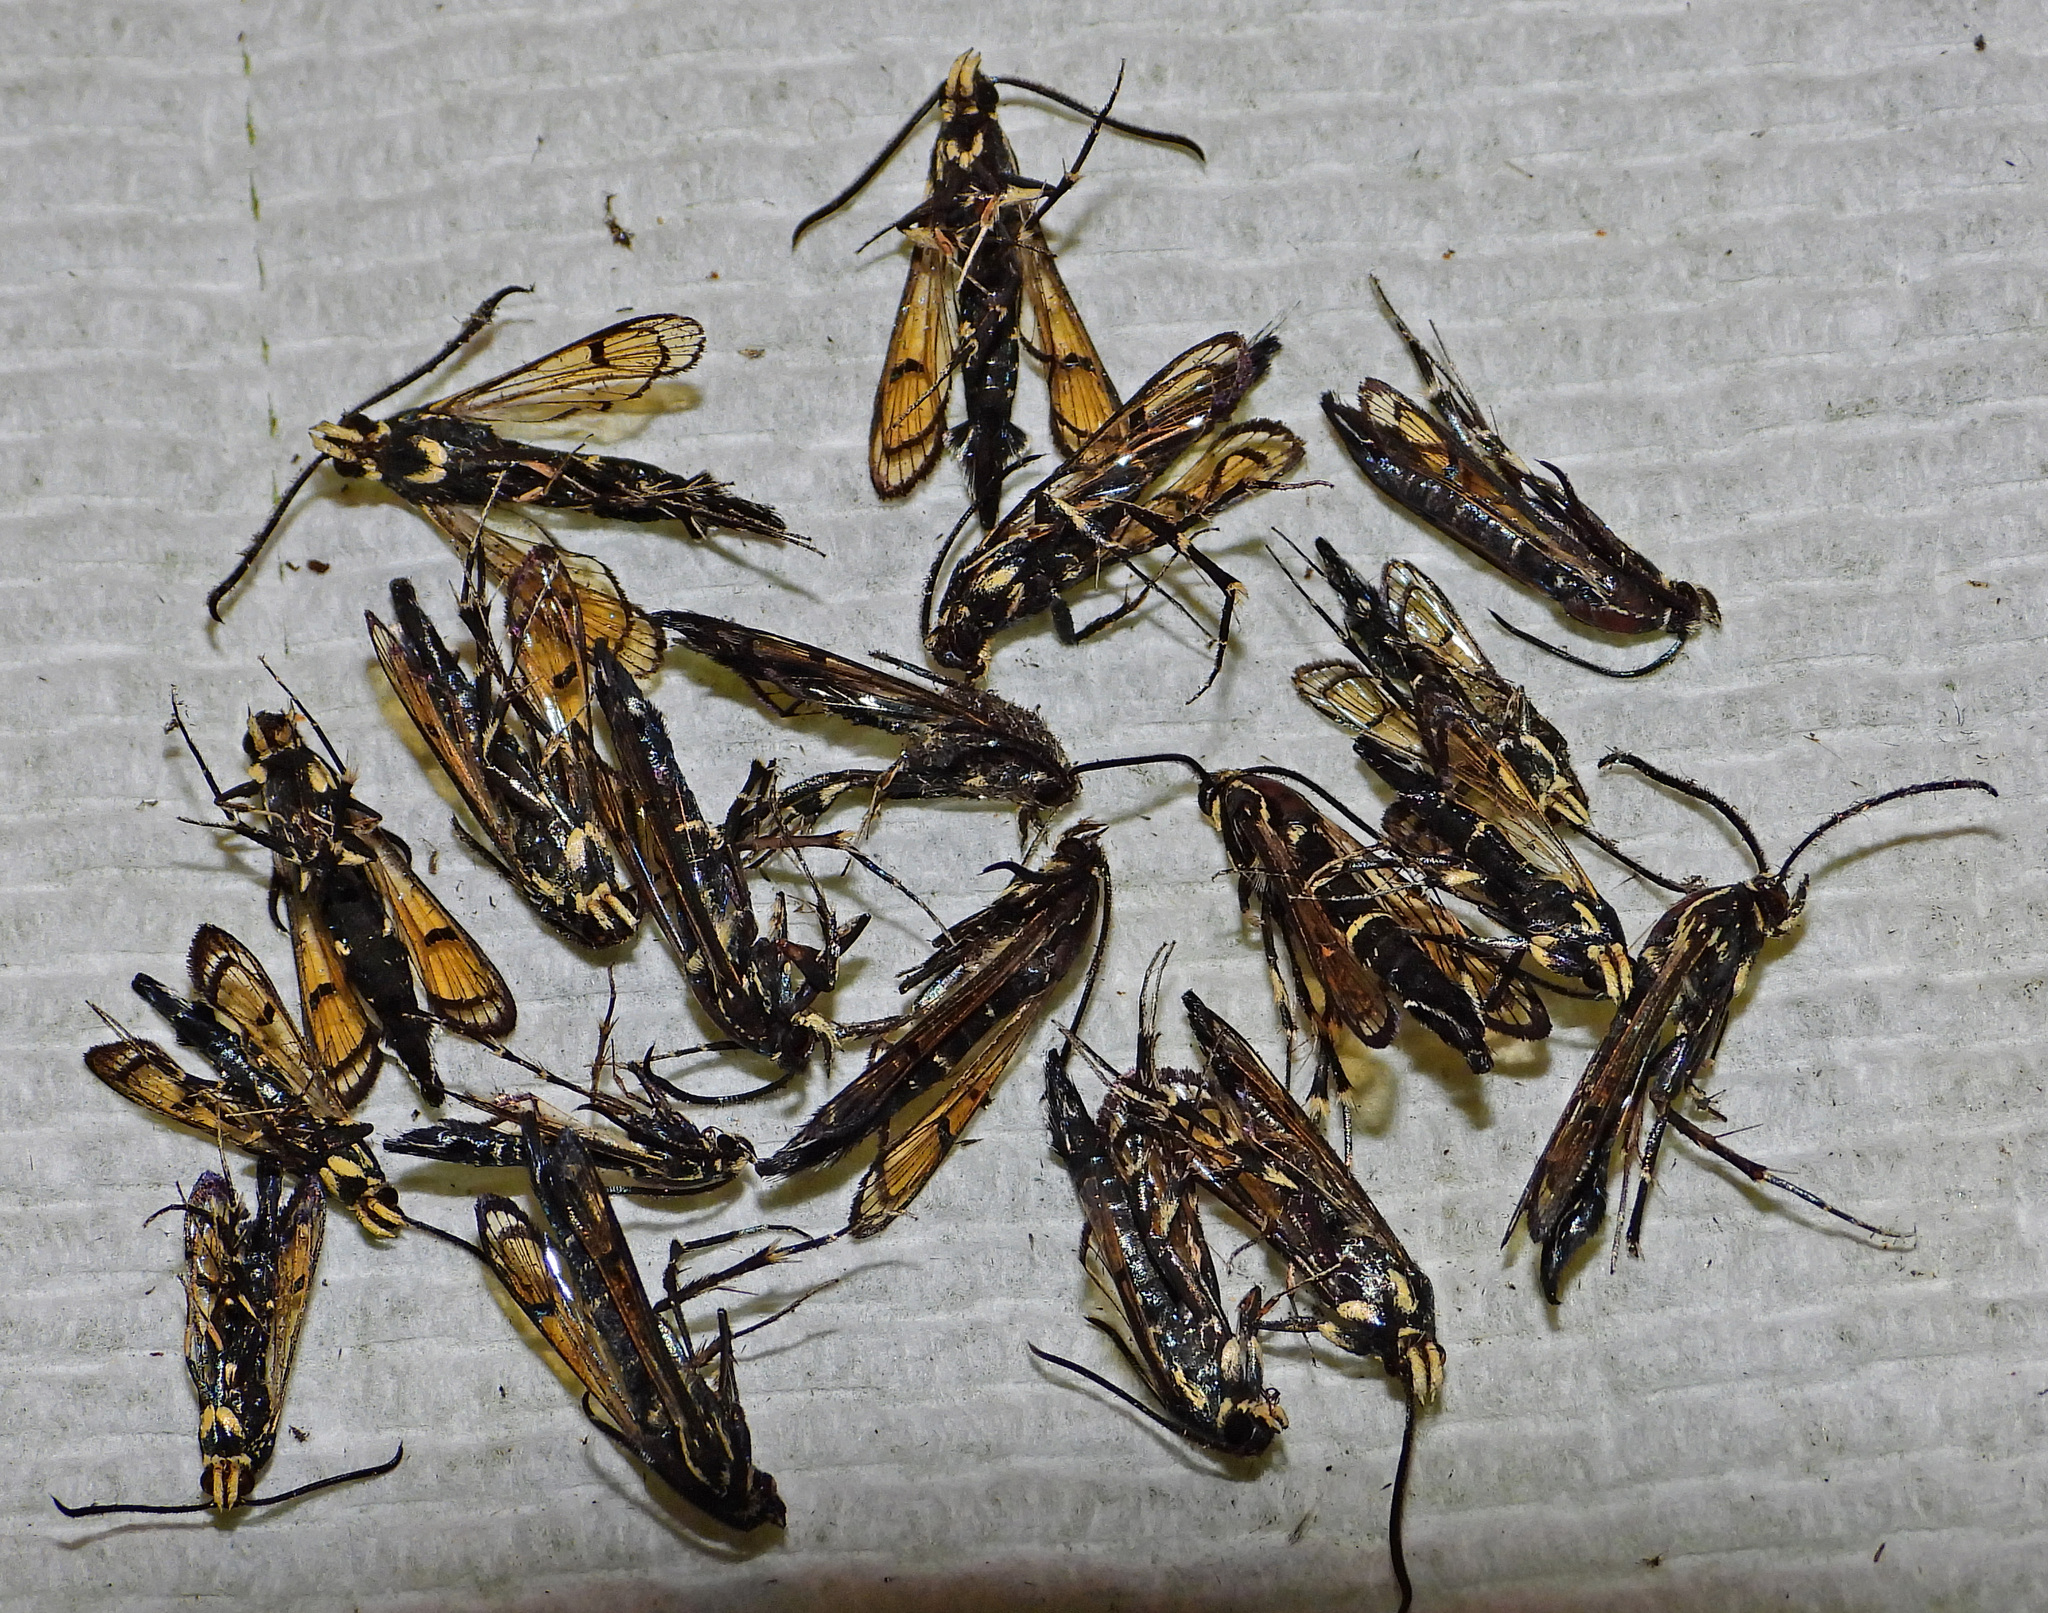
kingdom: Animalia
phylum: Arthropoda
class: Insecta
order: Lepidoptera
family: Sesiidae
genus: Synanthedon
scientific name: Synanthedon exitiosa
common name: Peachtree borer moth
